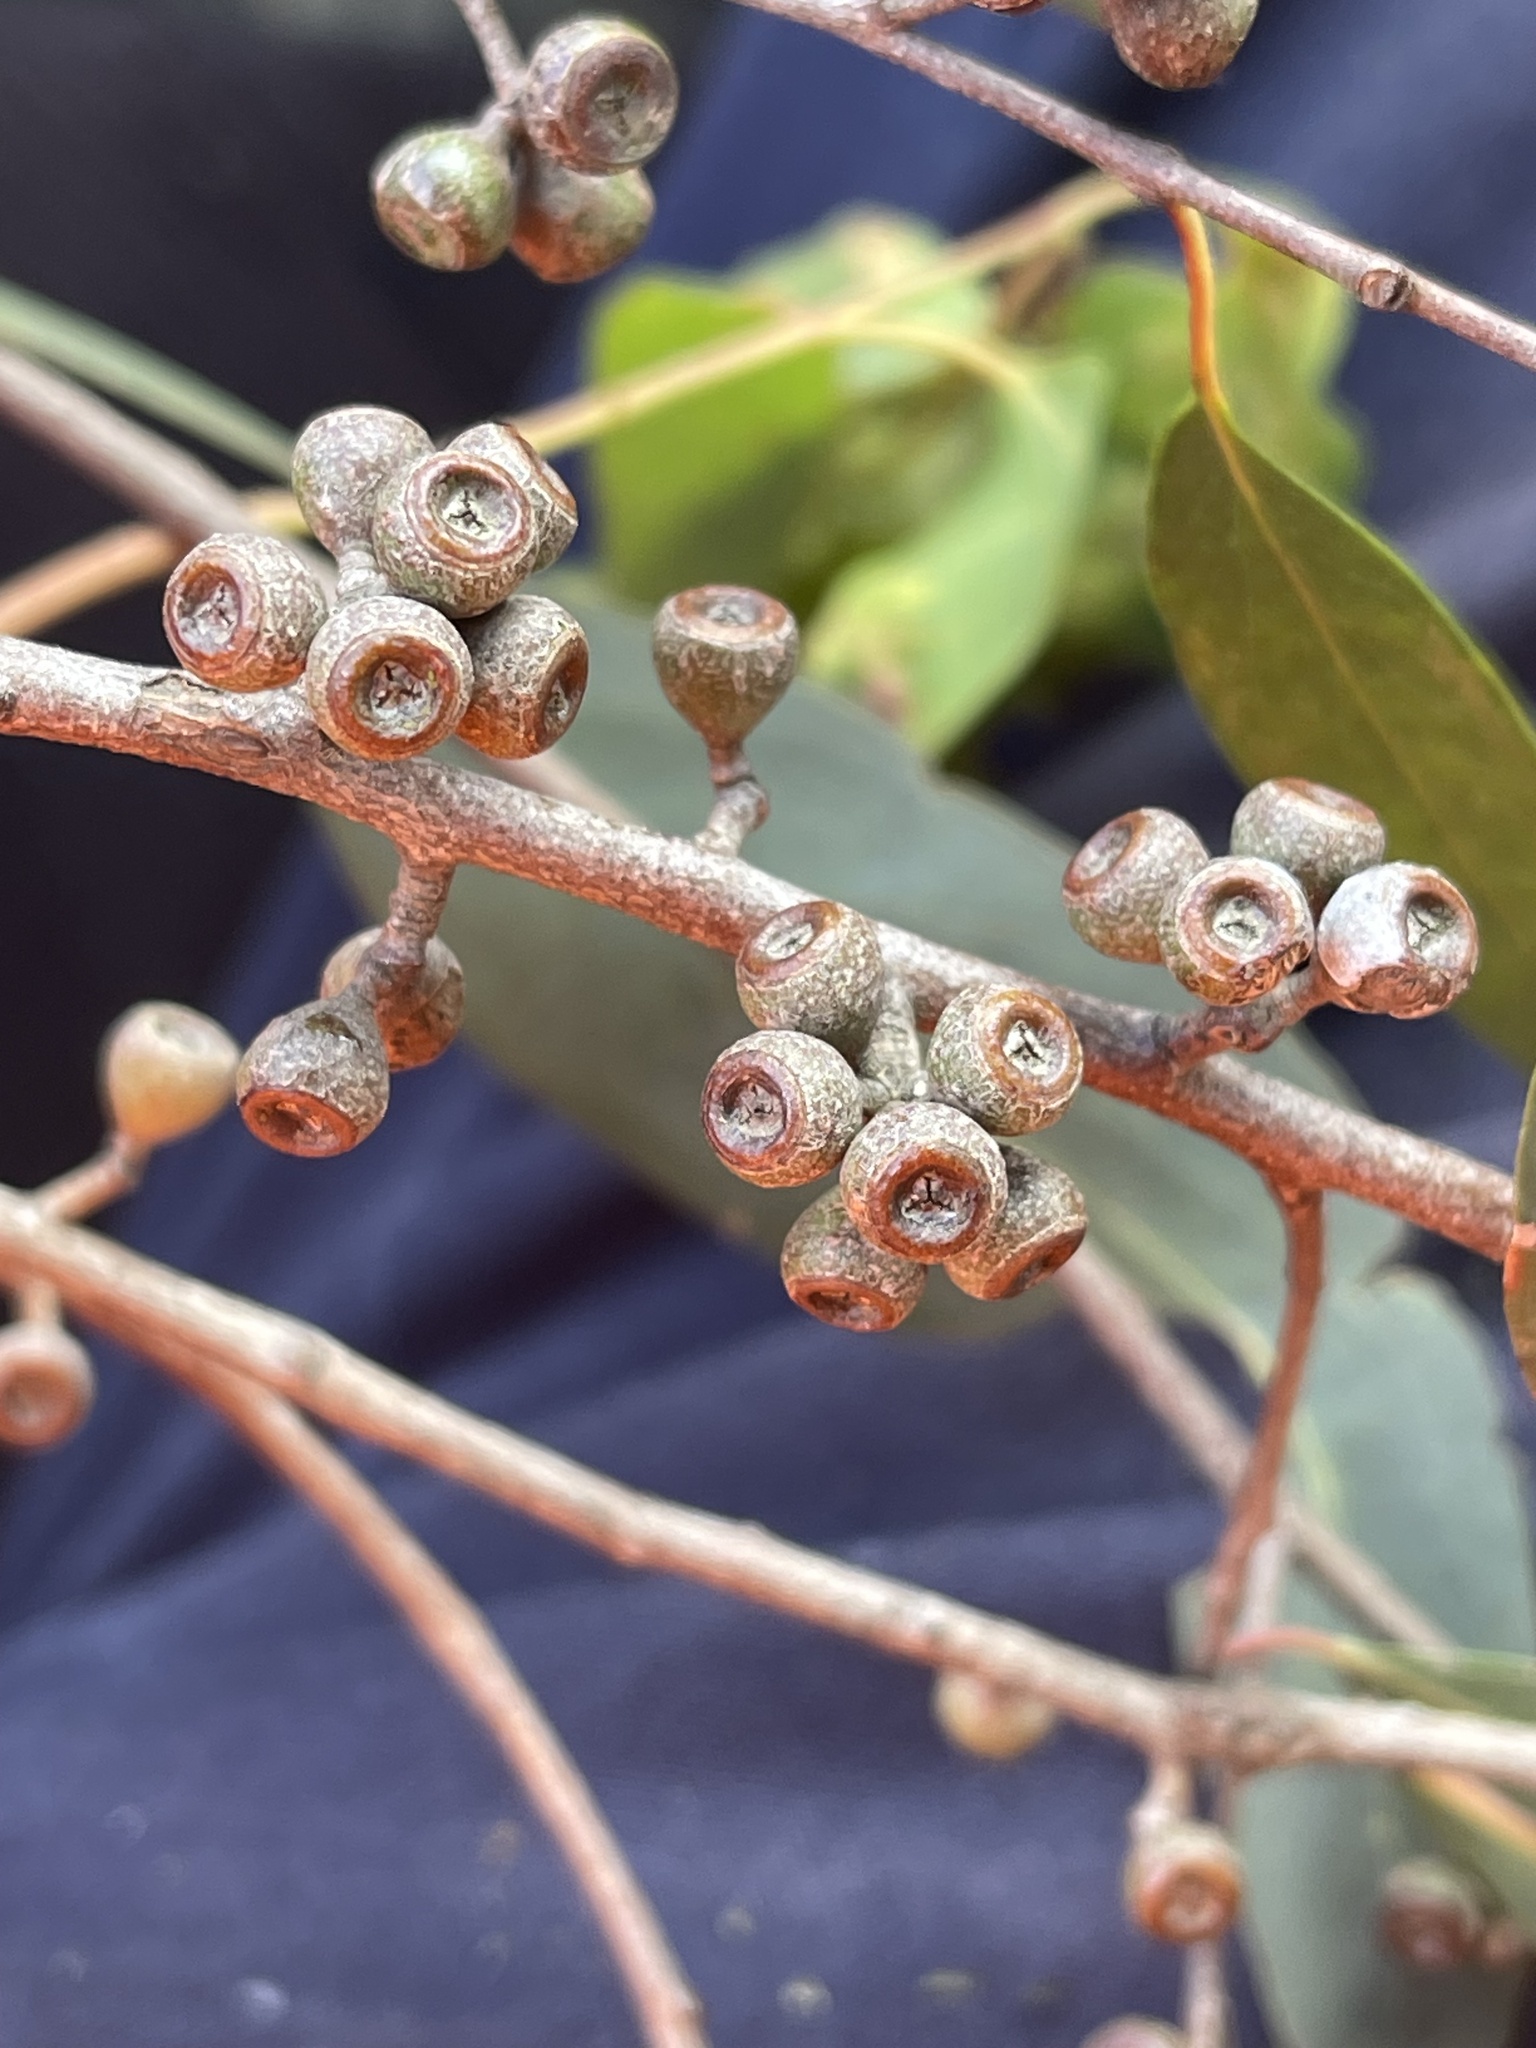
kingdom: Plantae
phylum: Tracheophyta
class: Magnoliopsida
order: Myrtales
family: Myrtaceae
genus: Eucalyptus
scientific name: Eucalyptus dives
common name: Blue peppermint
